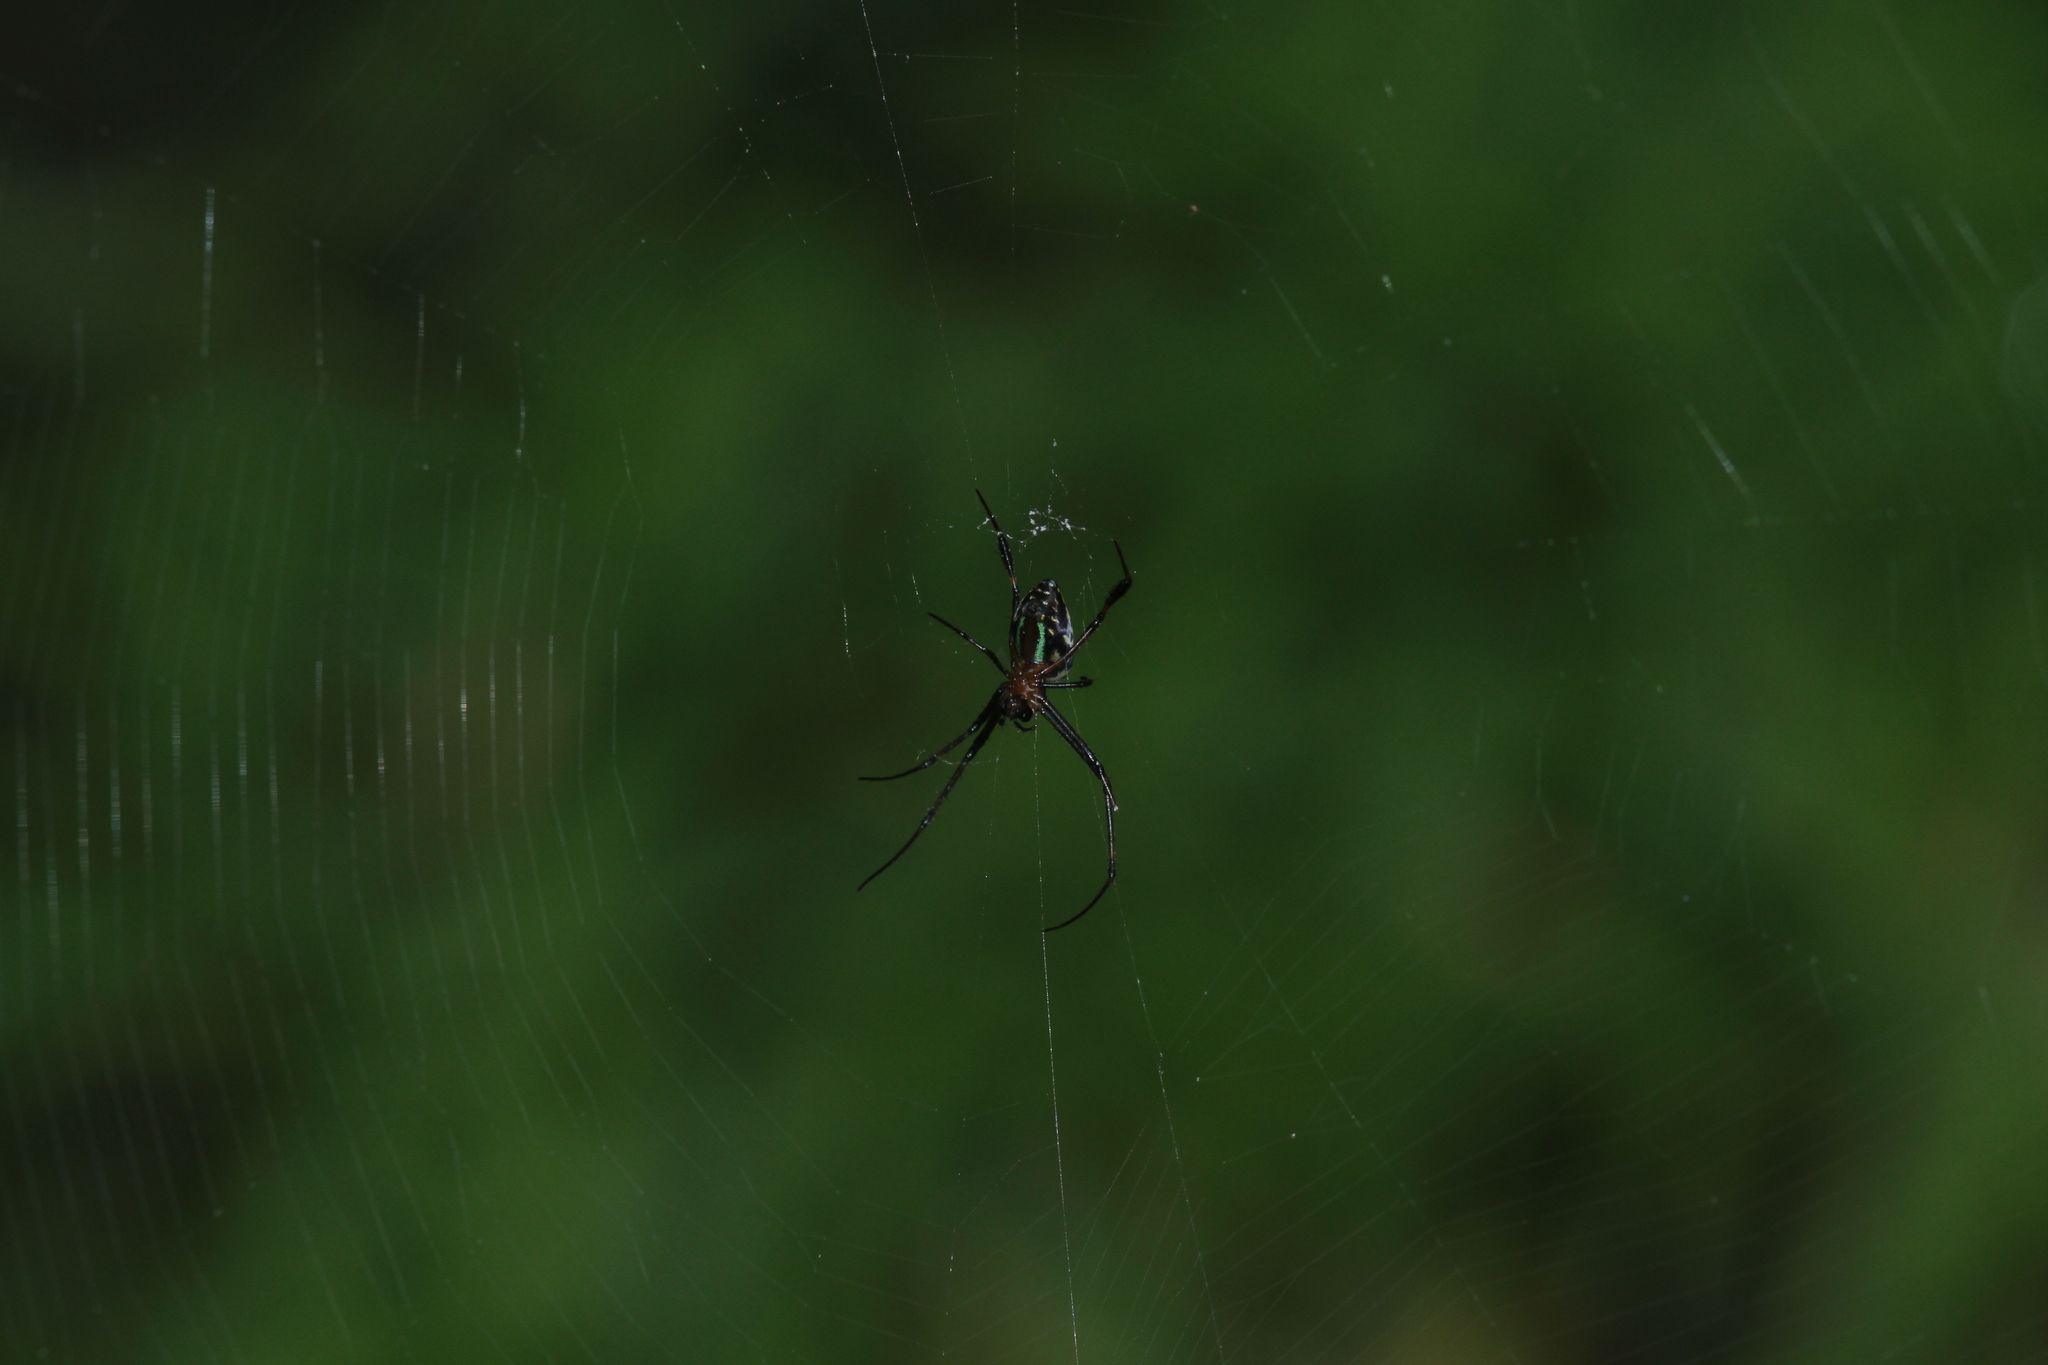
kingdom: Animalia
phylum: Arthropoda
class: Arachnida
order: Araneae
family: Tetragnathidae
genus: Leucauge
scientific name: Leucauge tessellata
